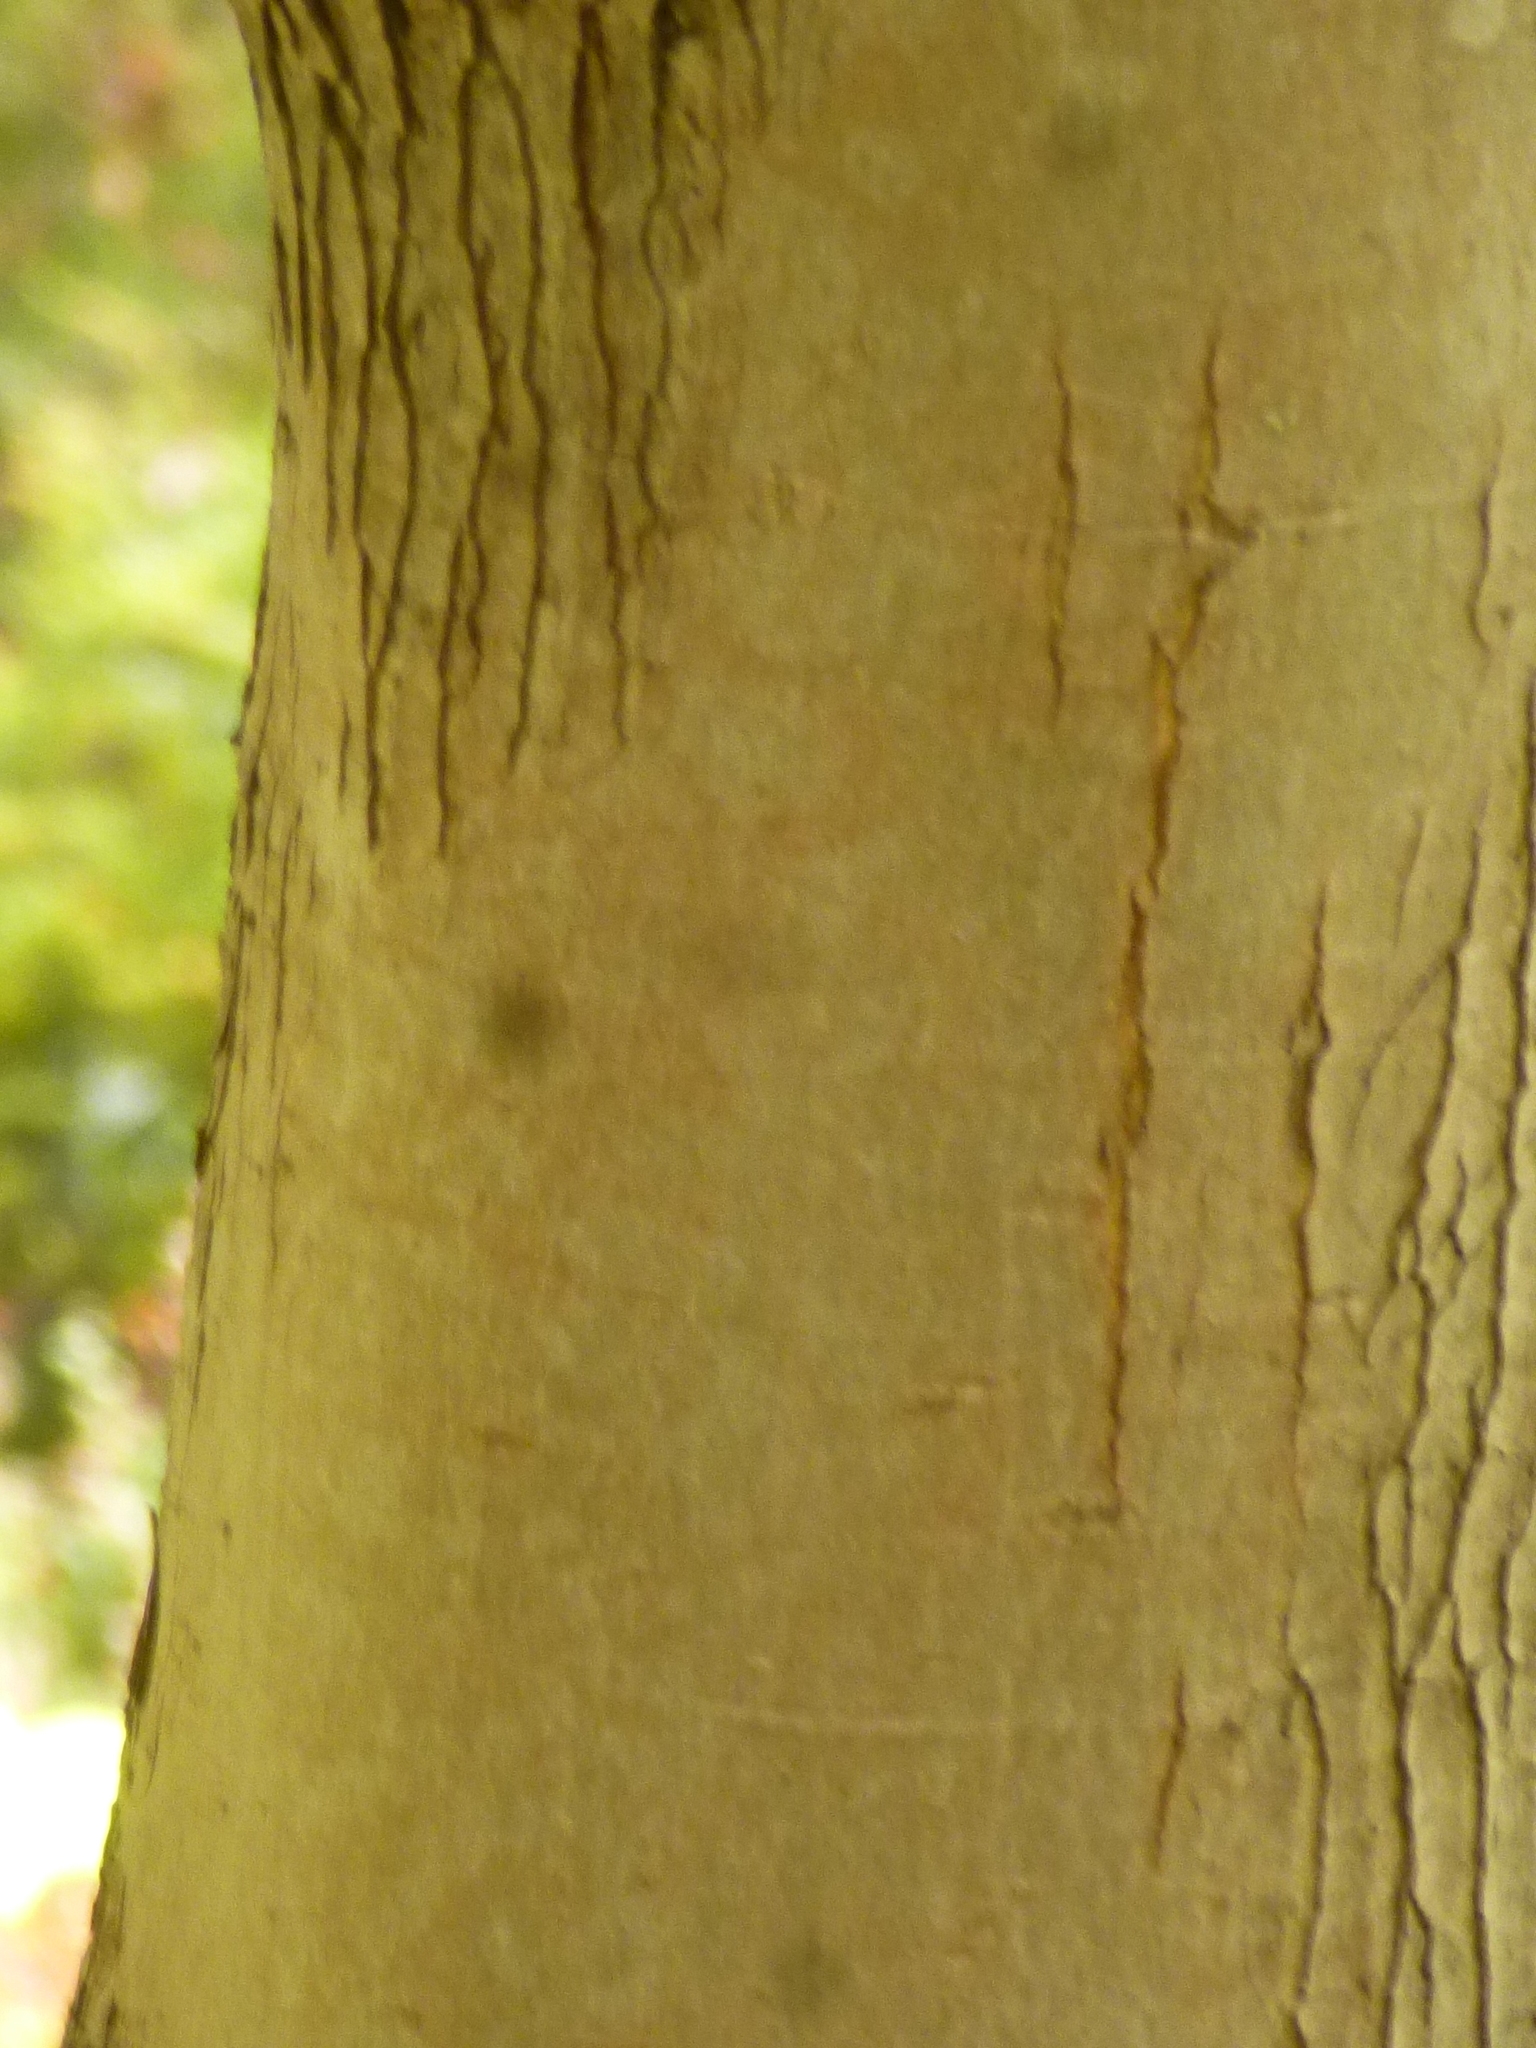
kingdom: Plantae
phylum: Tracheophyta
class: Magnoliopsida
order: Sapindales
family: Sapindaceae
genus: Acer
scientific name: Acer rubrum
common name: Red maple
